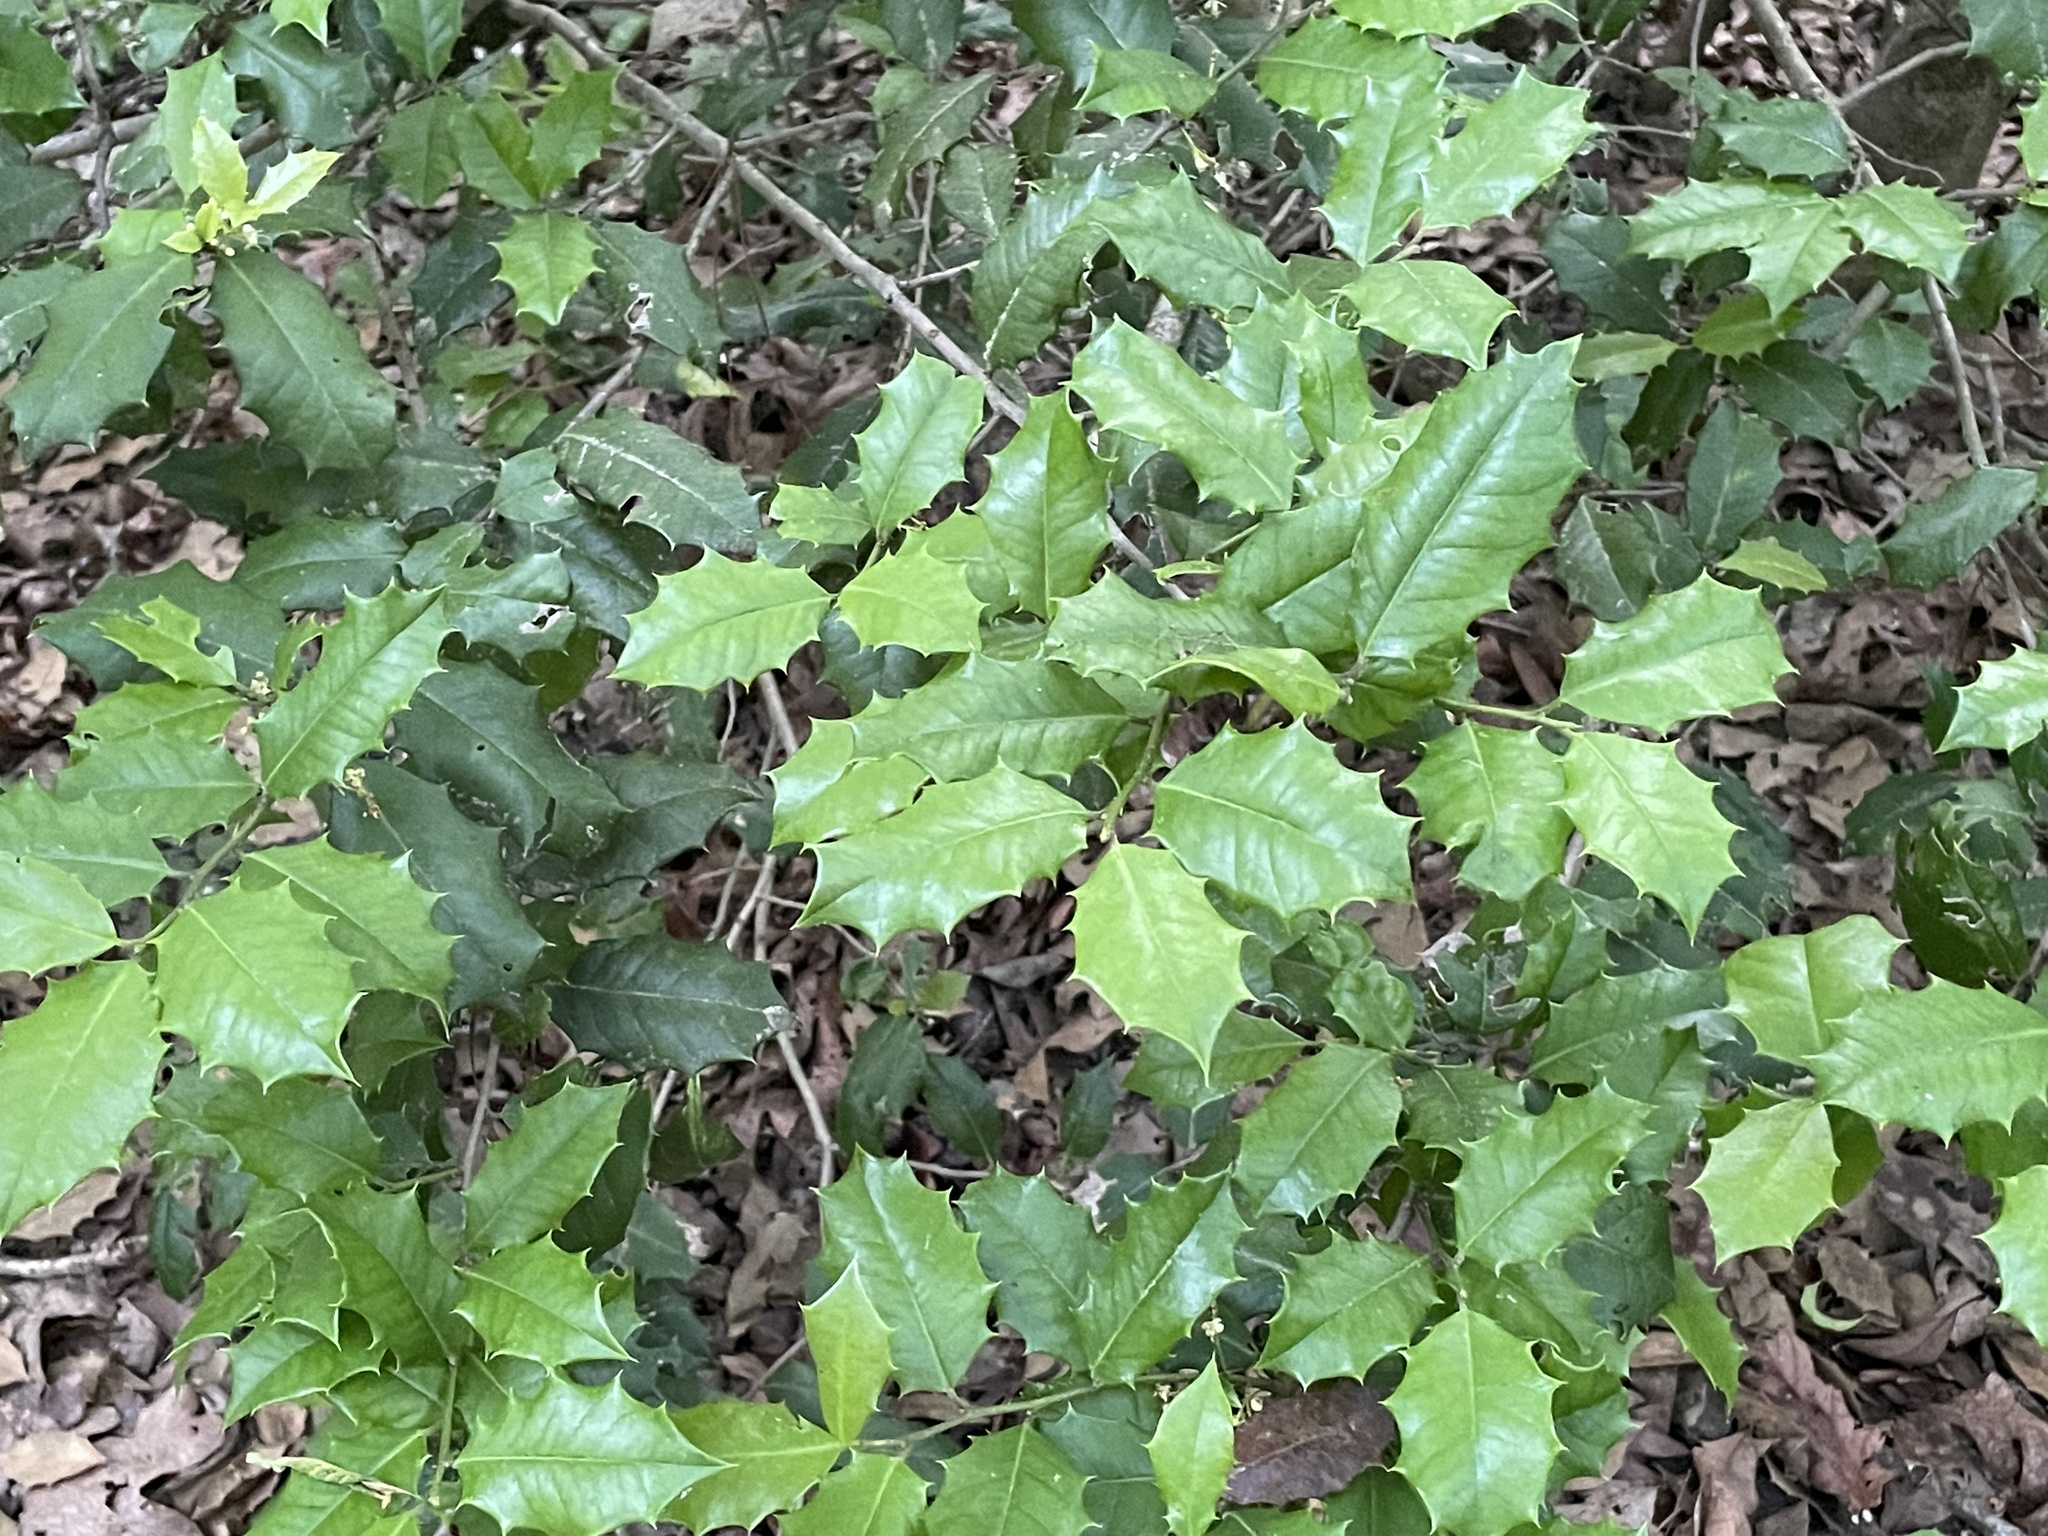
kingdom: Plantae
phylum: Tracheophyta
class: Magnoliopsida
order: Aquifoliales
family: Aquifoliaceae
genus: Ilex
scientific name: Ilex opaca
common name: American holly
